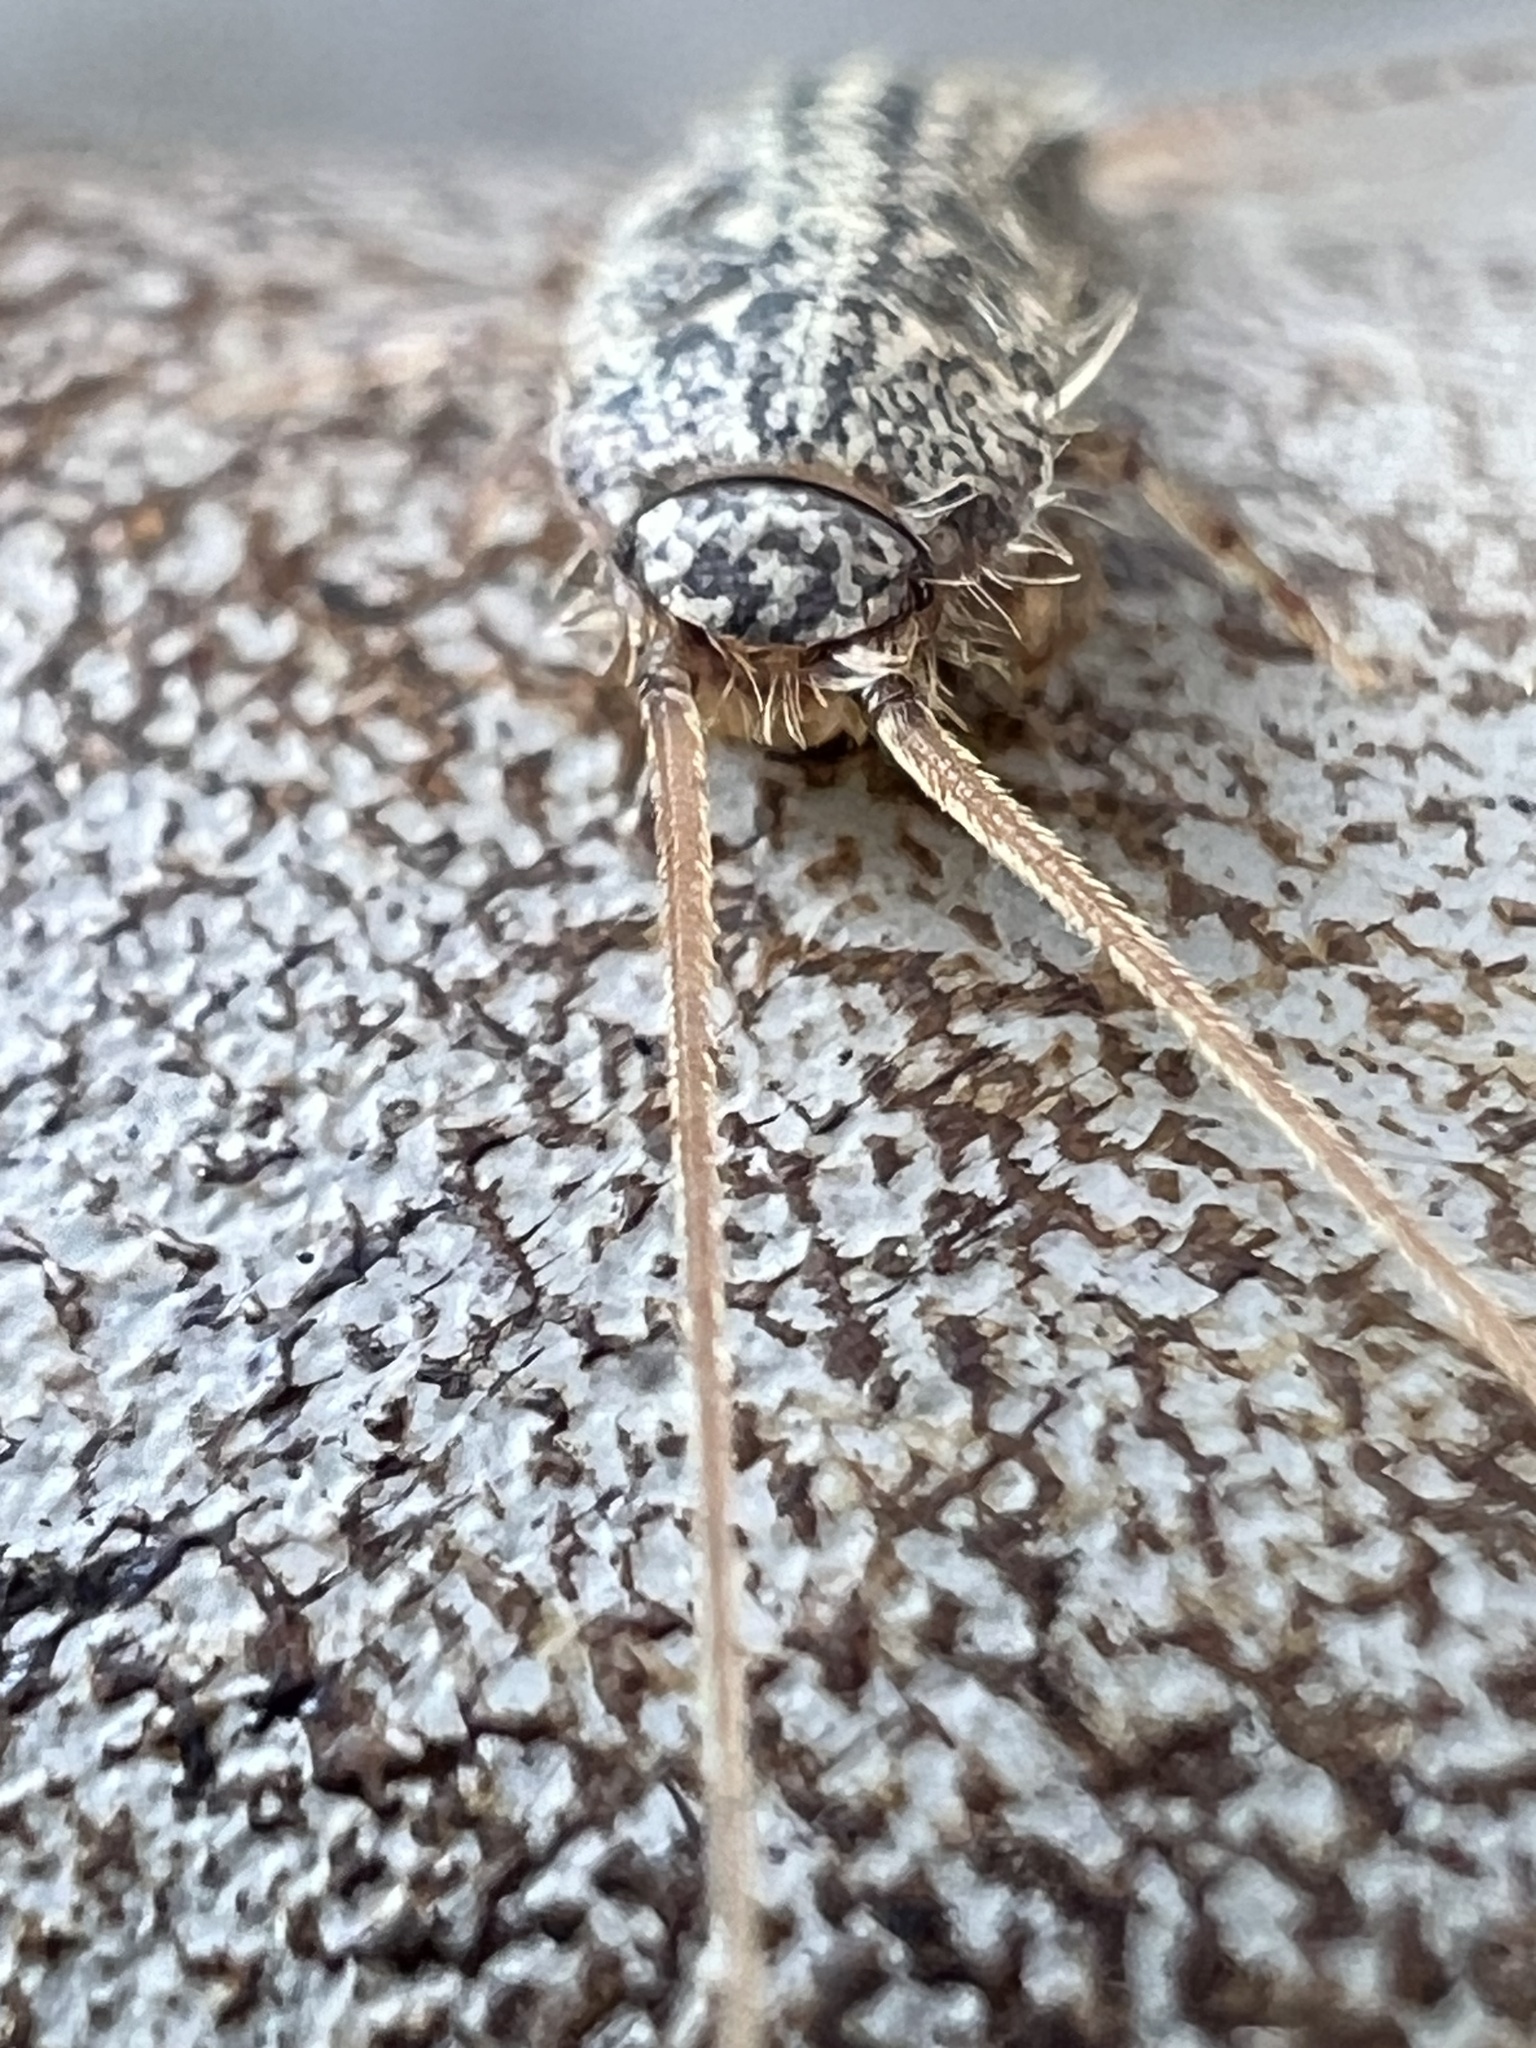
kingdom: Animalia
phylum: Arthropoda
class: Insecta
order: Zygentoma
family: Lepismatidae
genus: Ctenolepisma
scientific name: Ctenolepisma lineata
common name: Four-lined silverfish
